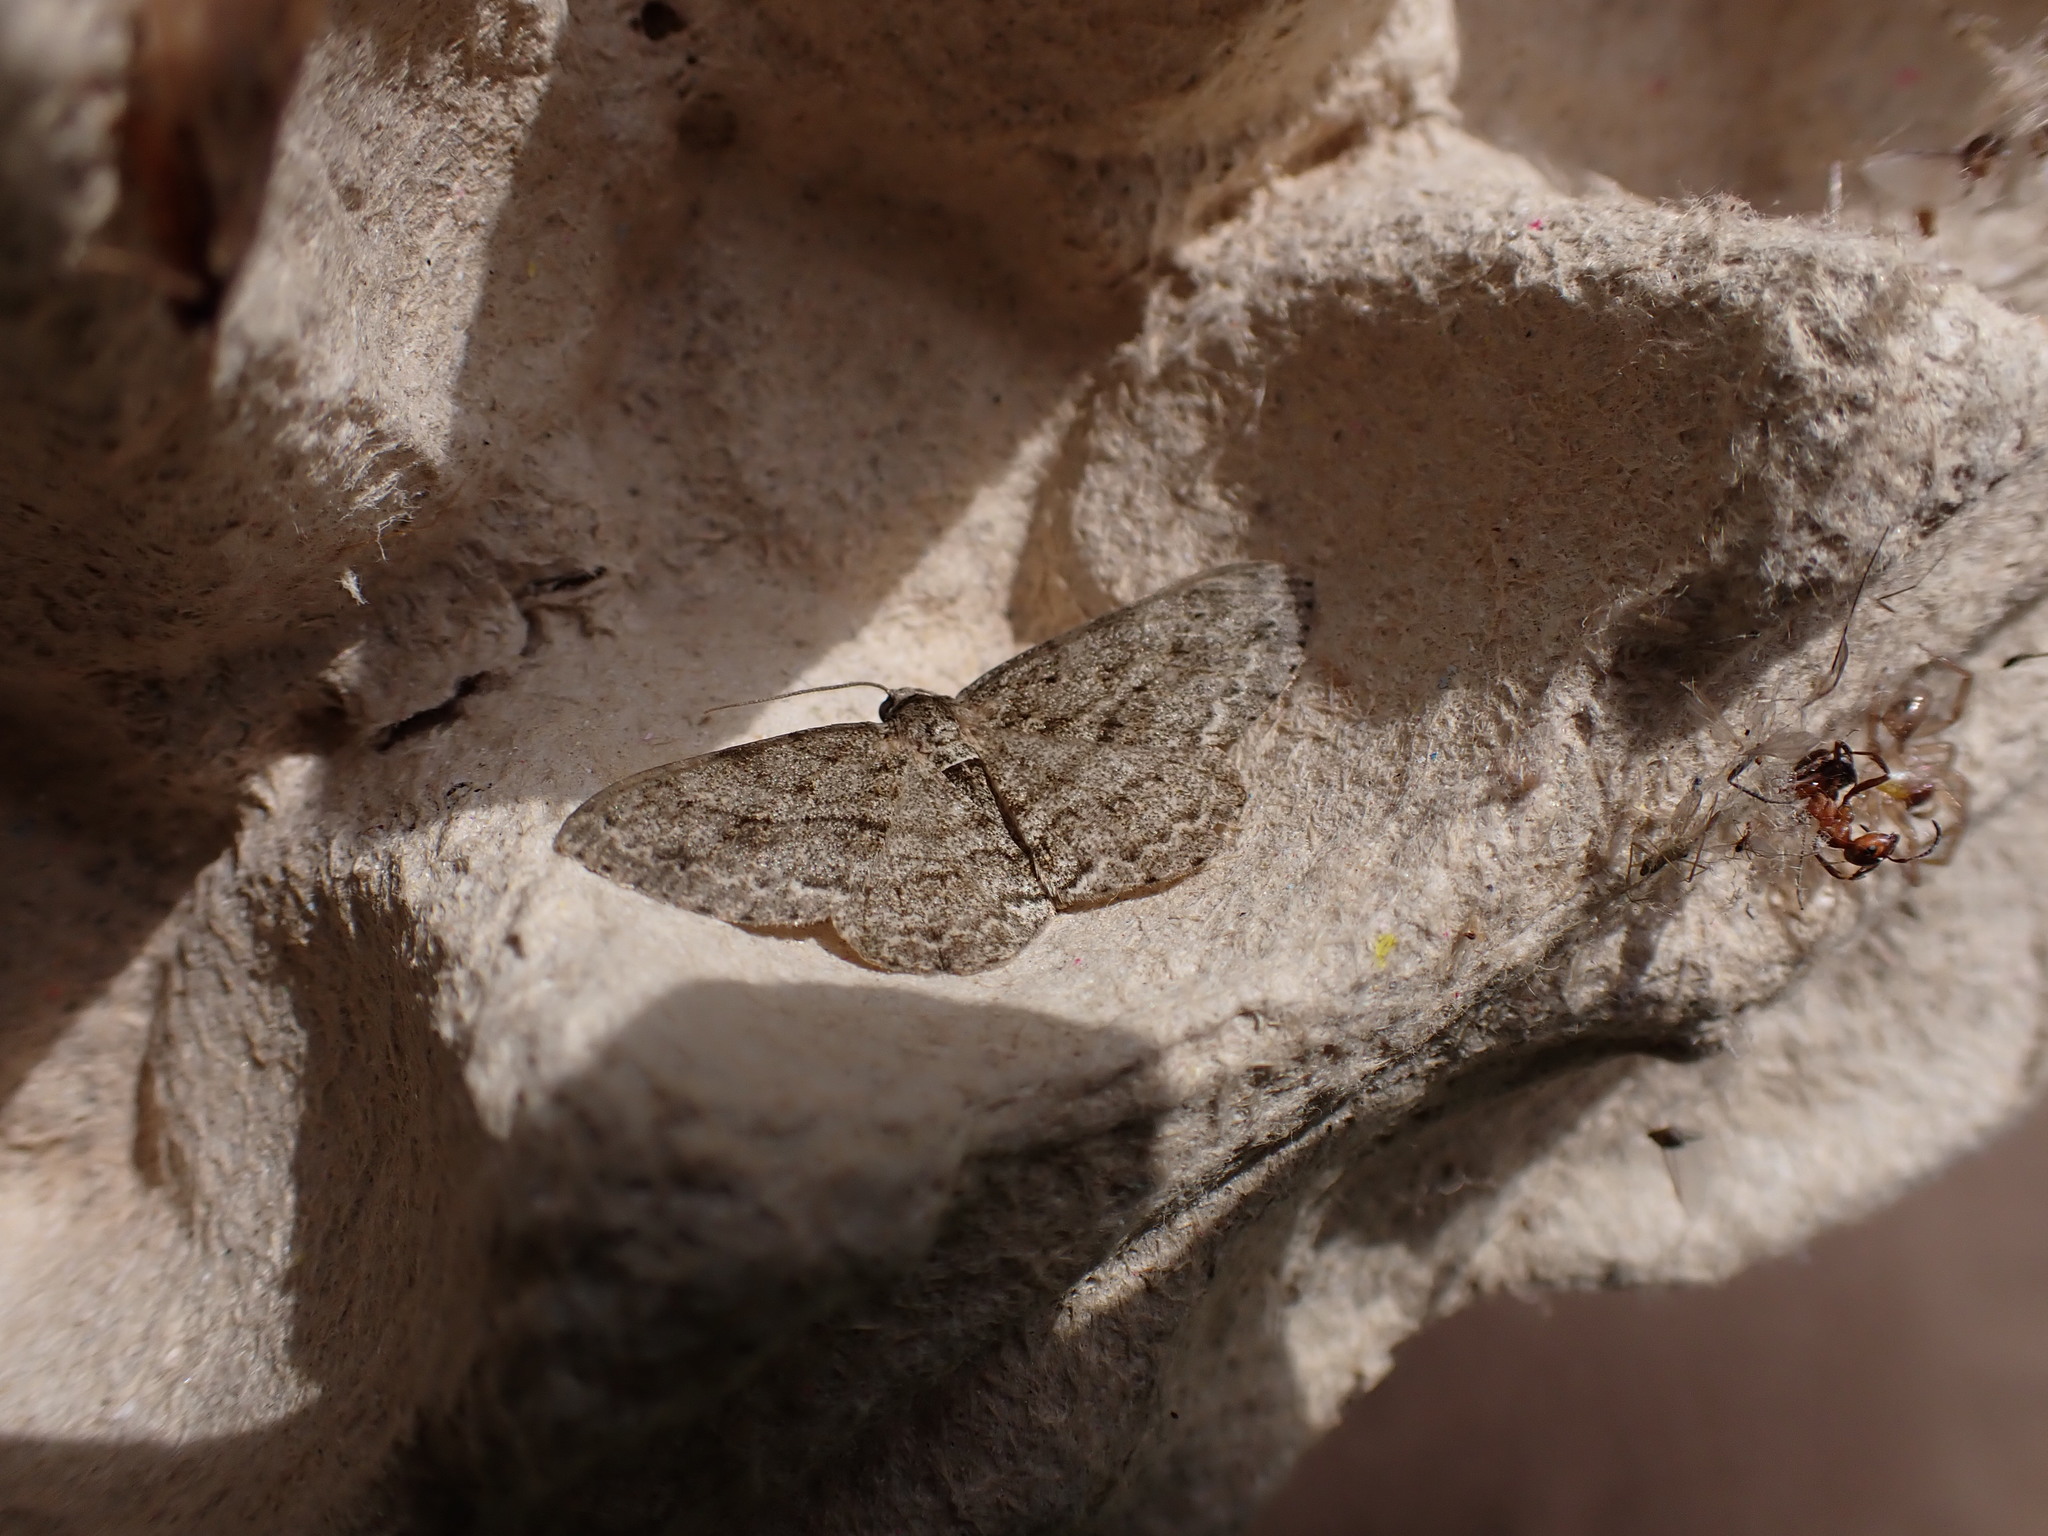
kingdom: Animalia
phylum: Arthropoda
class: Insecta
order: Lepidoptera
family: Geometridae
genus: Ectropis
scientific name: Ectropis crepuscularia
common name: Engrailed
